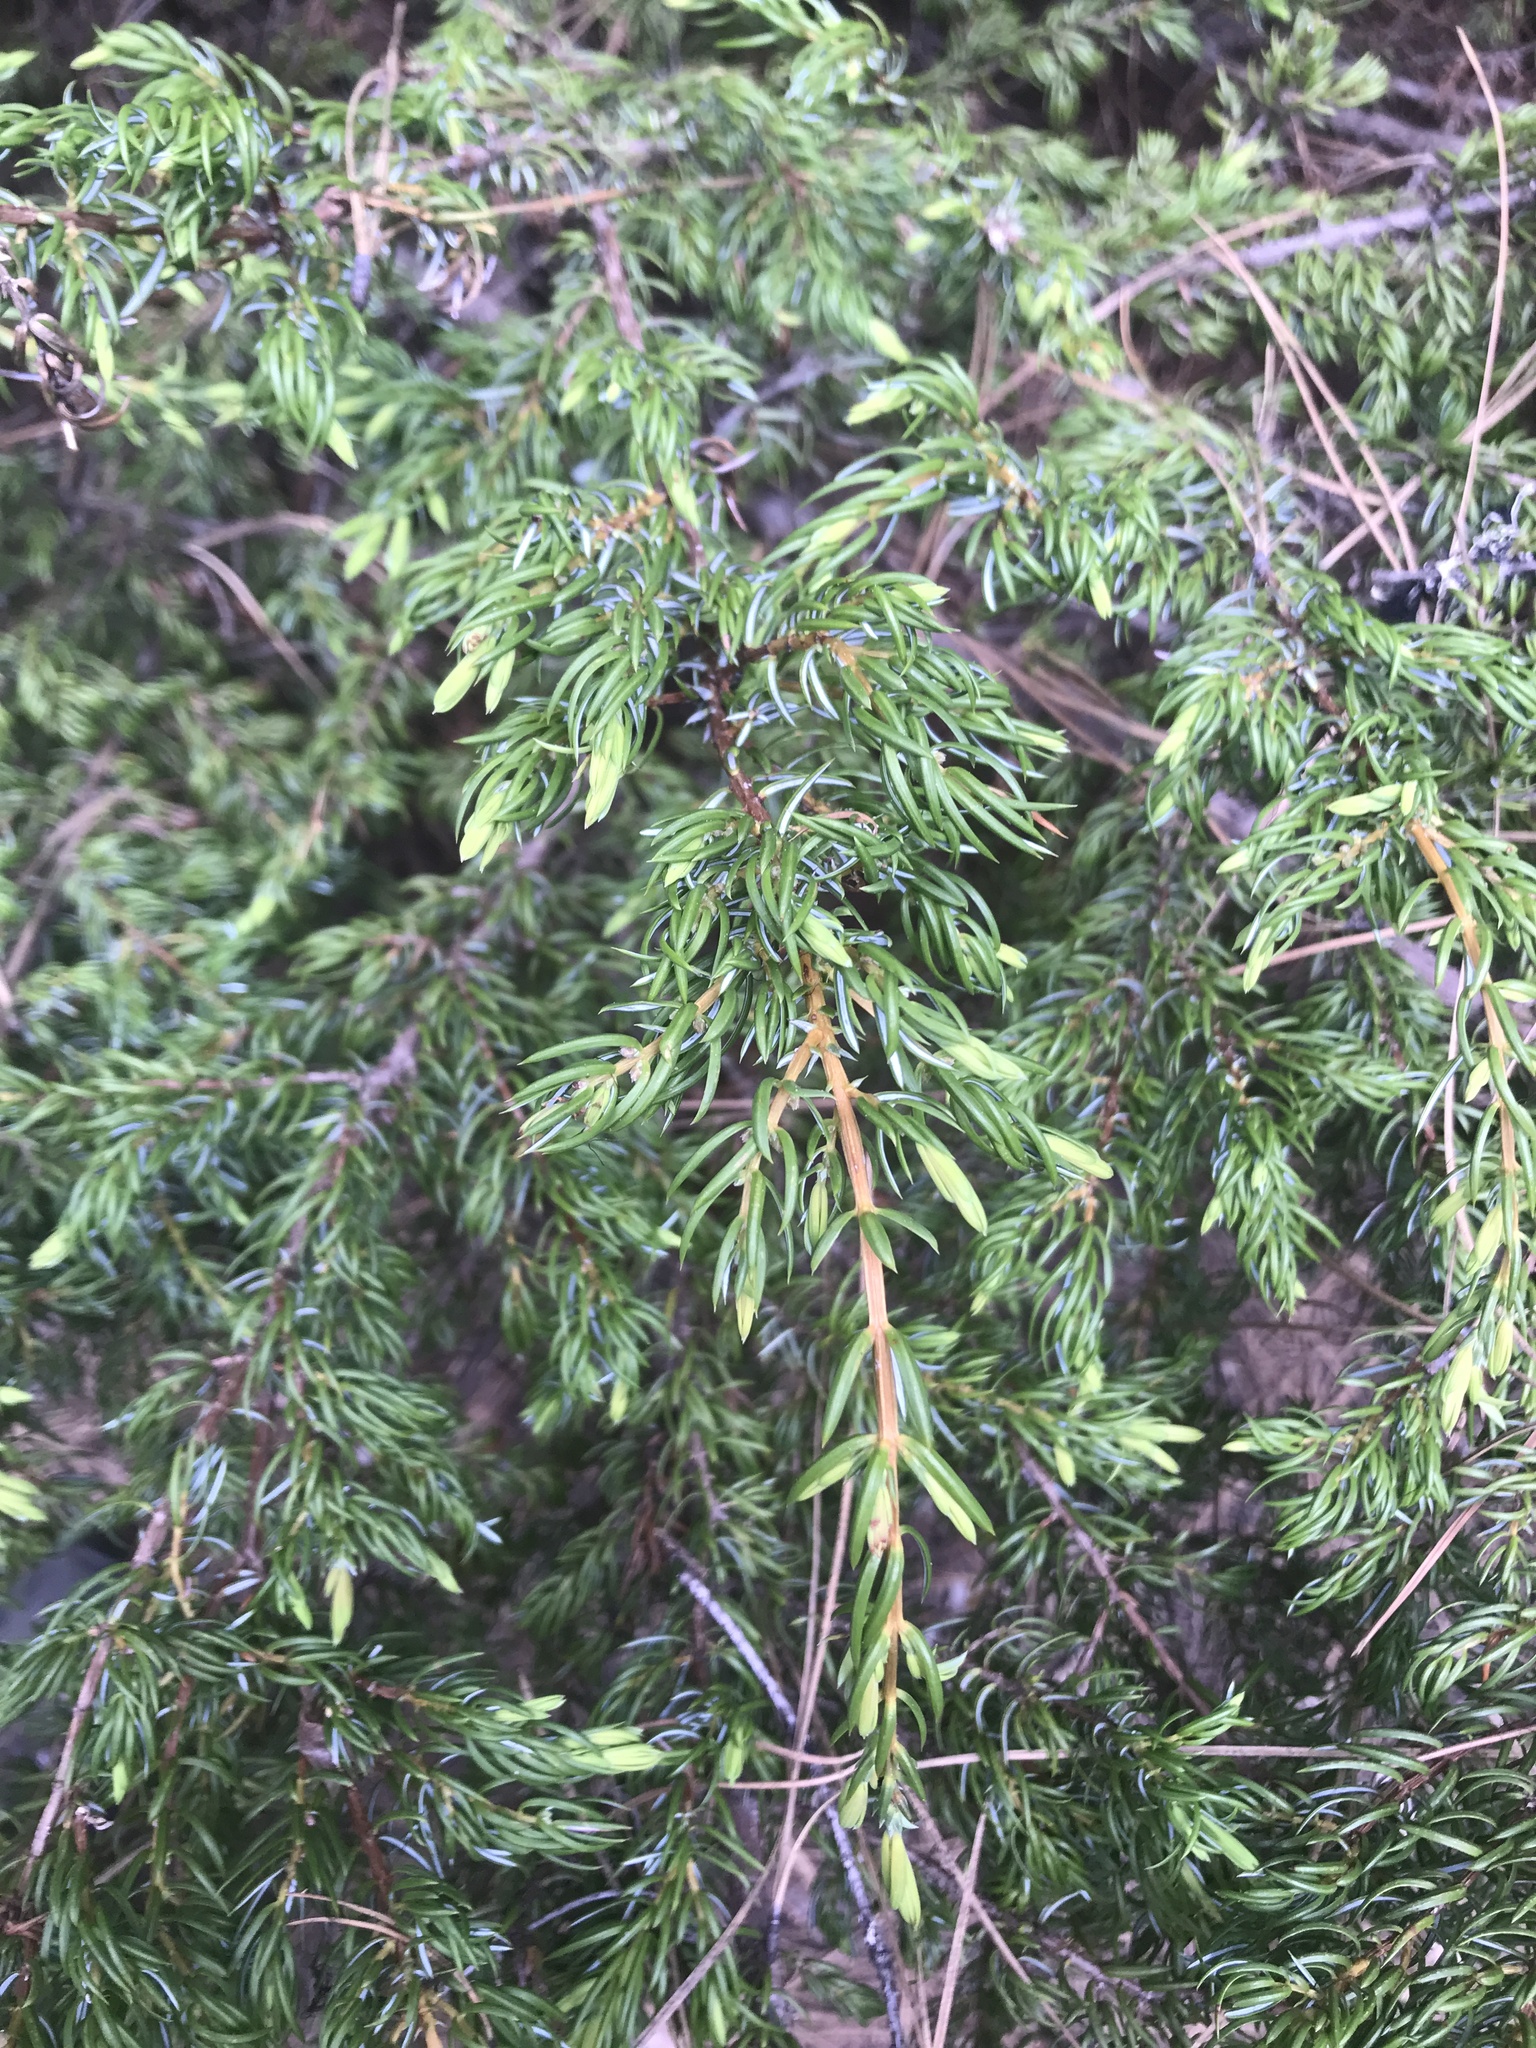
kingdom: Plantae
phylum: Tracheophyta
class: Pinopsida
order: Pinales
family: Cupressaceae
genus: Juniperus
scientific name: Juniperus communis
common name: Common juniper
